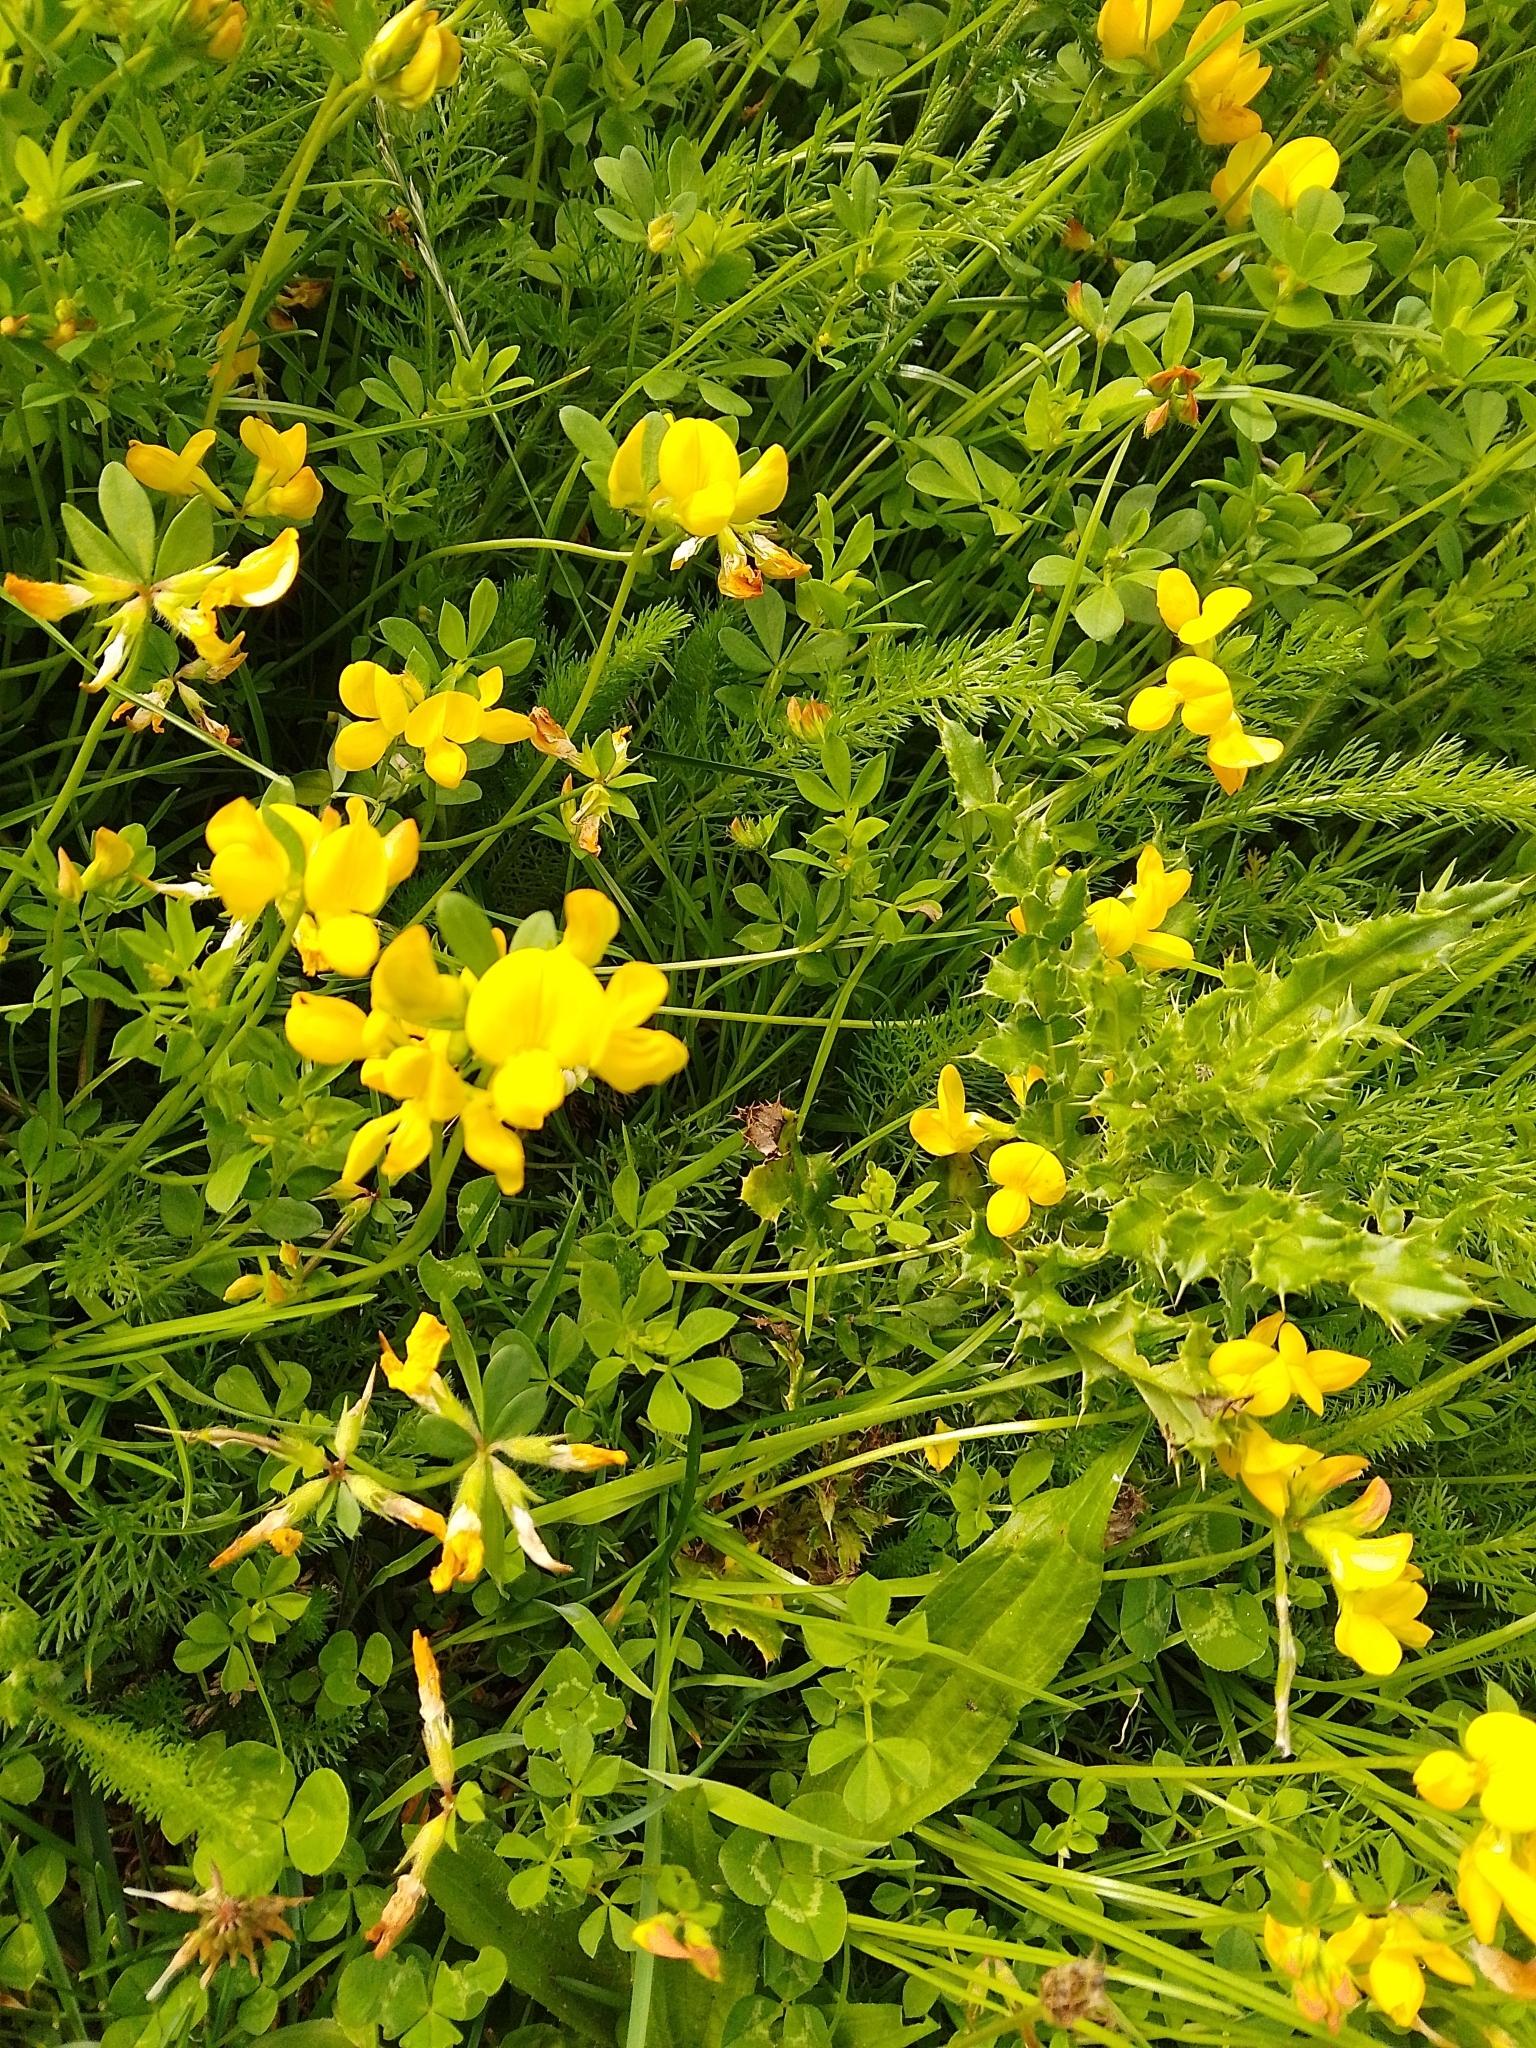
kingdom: Plantae
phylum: Tracheophyta
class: Magnoliopsida
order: Fabales
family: Fabaceae
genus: Lotus
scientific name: Lotus corniculatus
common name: Common bird's-foot-trefoil
